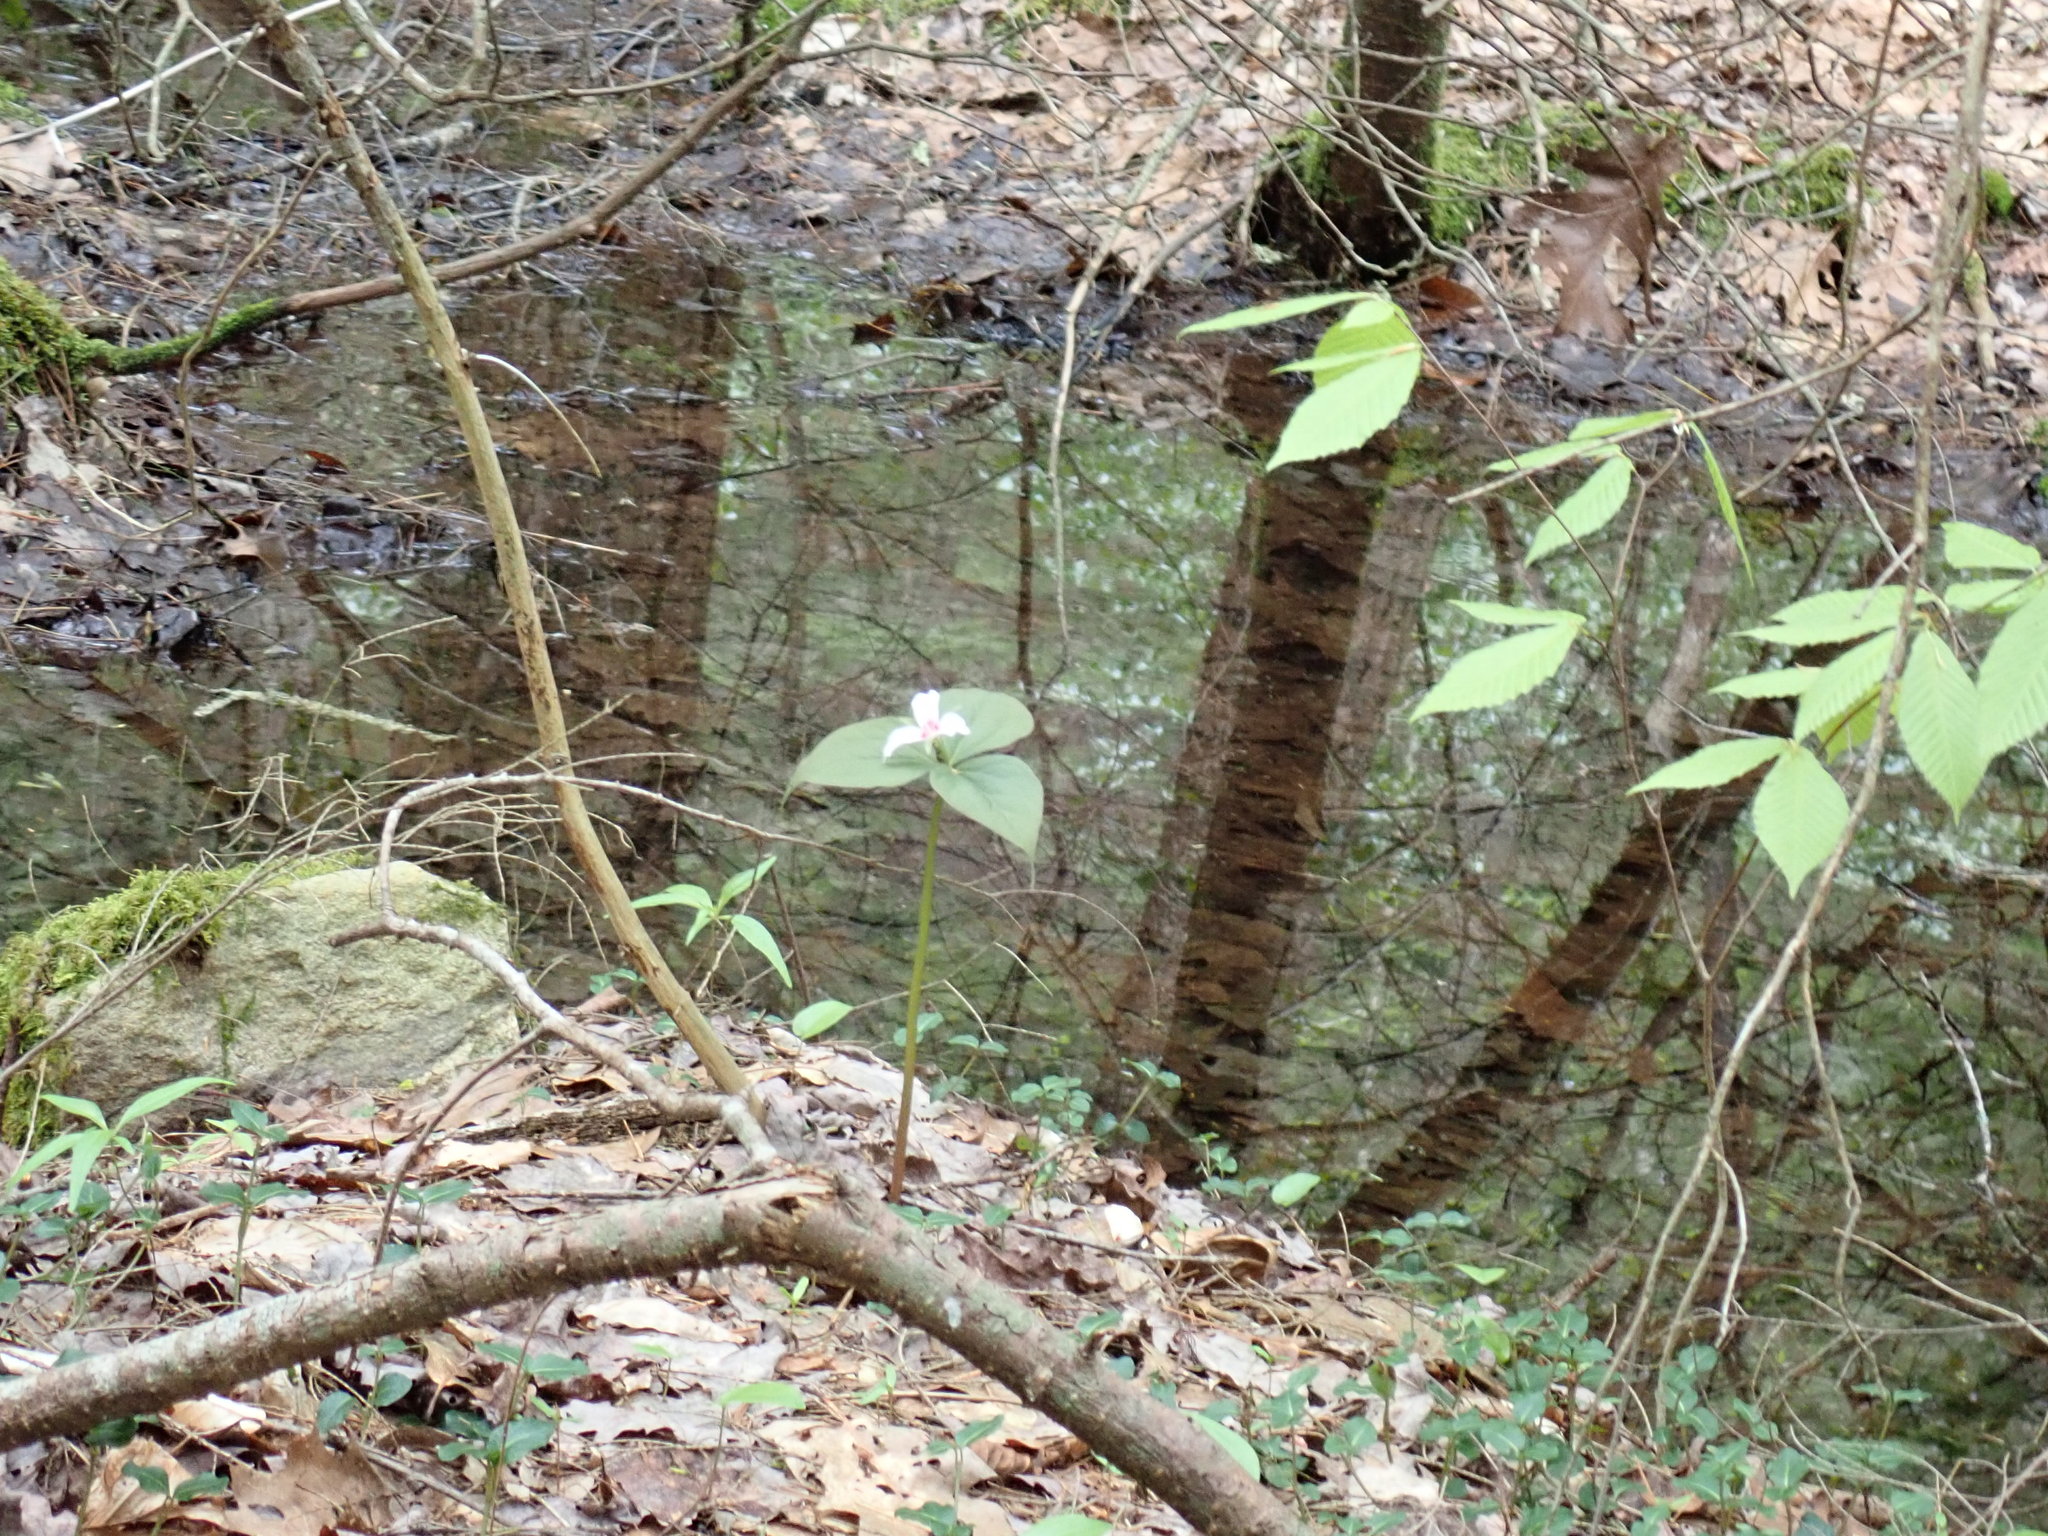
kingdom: Plantae
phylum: Tracheophyta
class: Liliopsida
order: Liliales
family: Melanthiaceae
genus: Trillium
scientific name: Trillium undulatum
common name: Paint trillium
